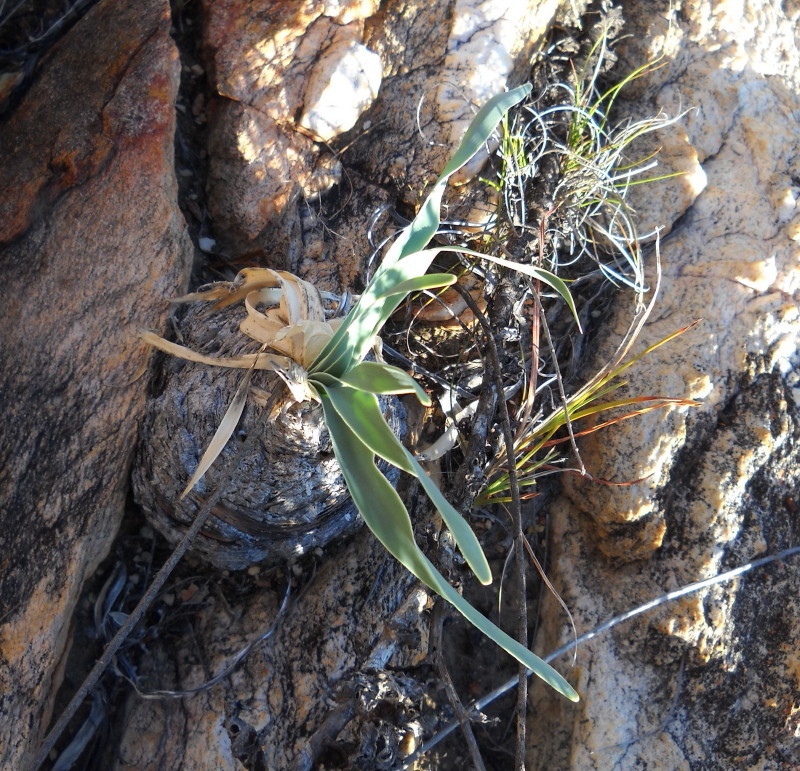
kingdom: Plantae
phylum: Tracheophyta
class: Liliopsida
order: Asparagales
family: Amaryllidaceae
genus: Boophone
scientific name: Boophone disticha
